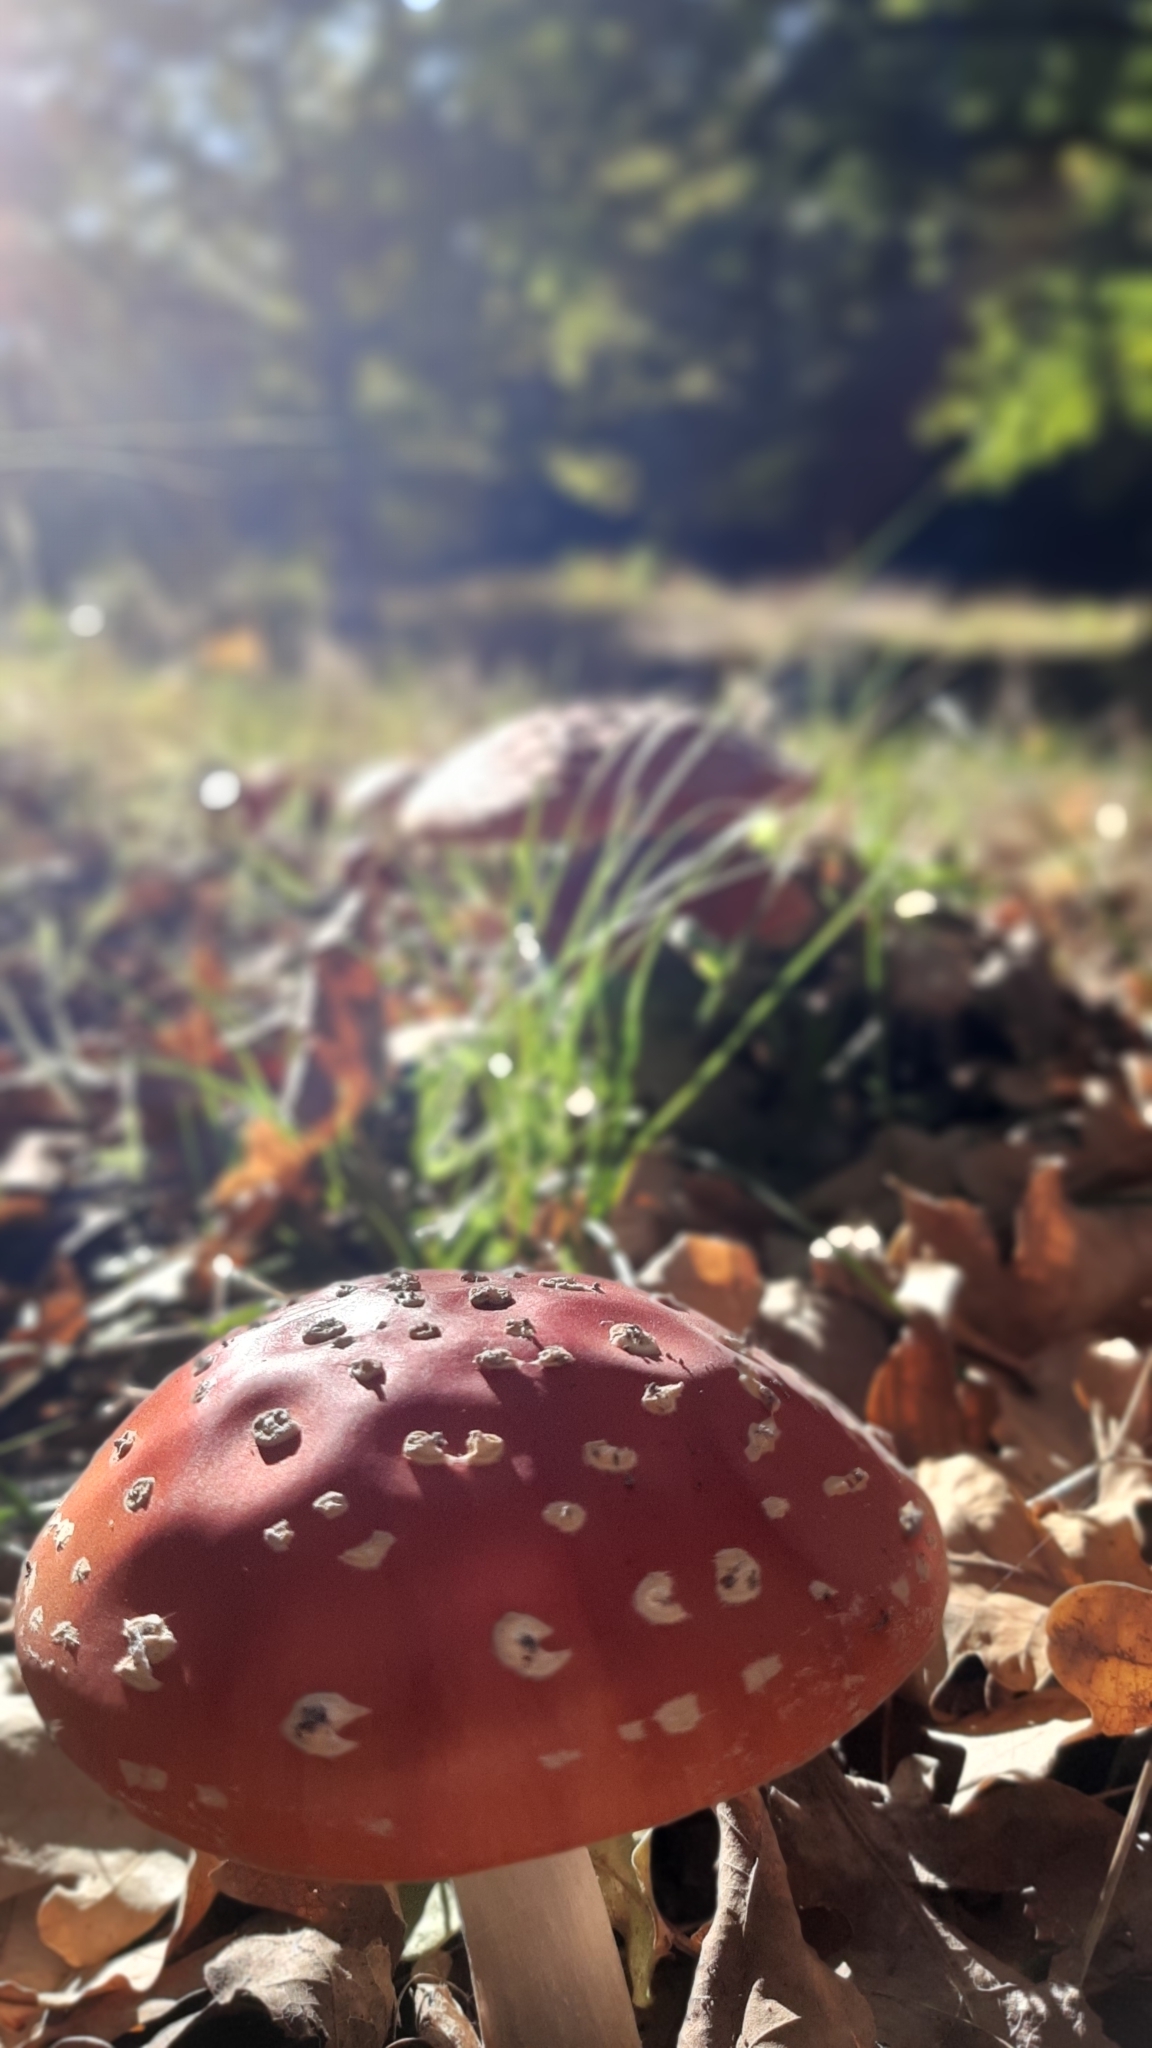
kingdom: Fungi
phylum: Basidiomycota
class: Agaricomycetes
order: Agaricales
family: Amanitaceae
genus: Amanita
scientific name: Amanita muscaria
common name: Fly agaric
